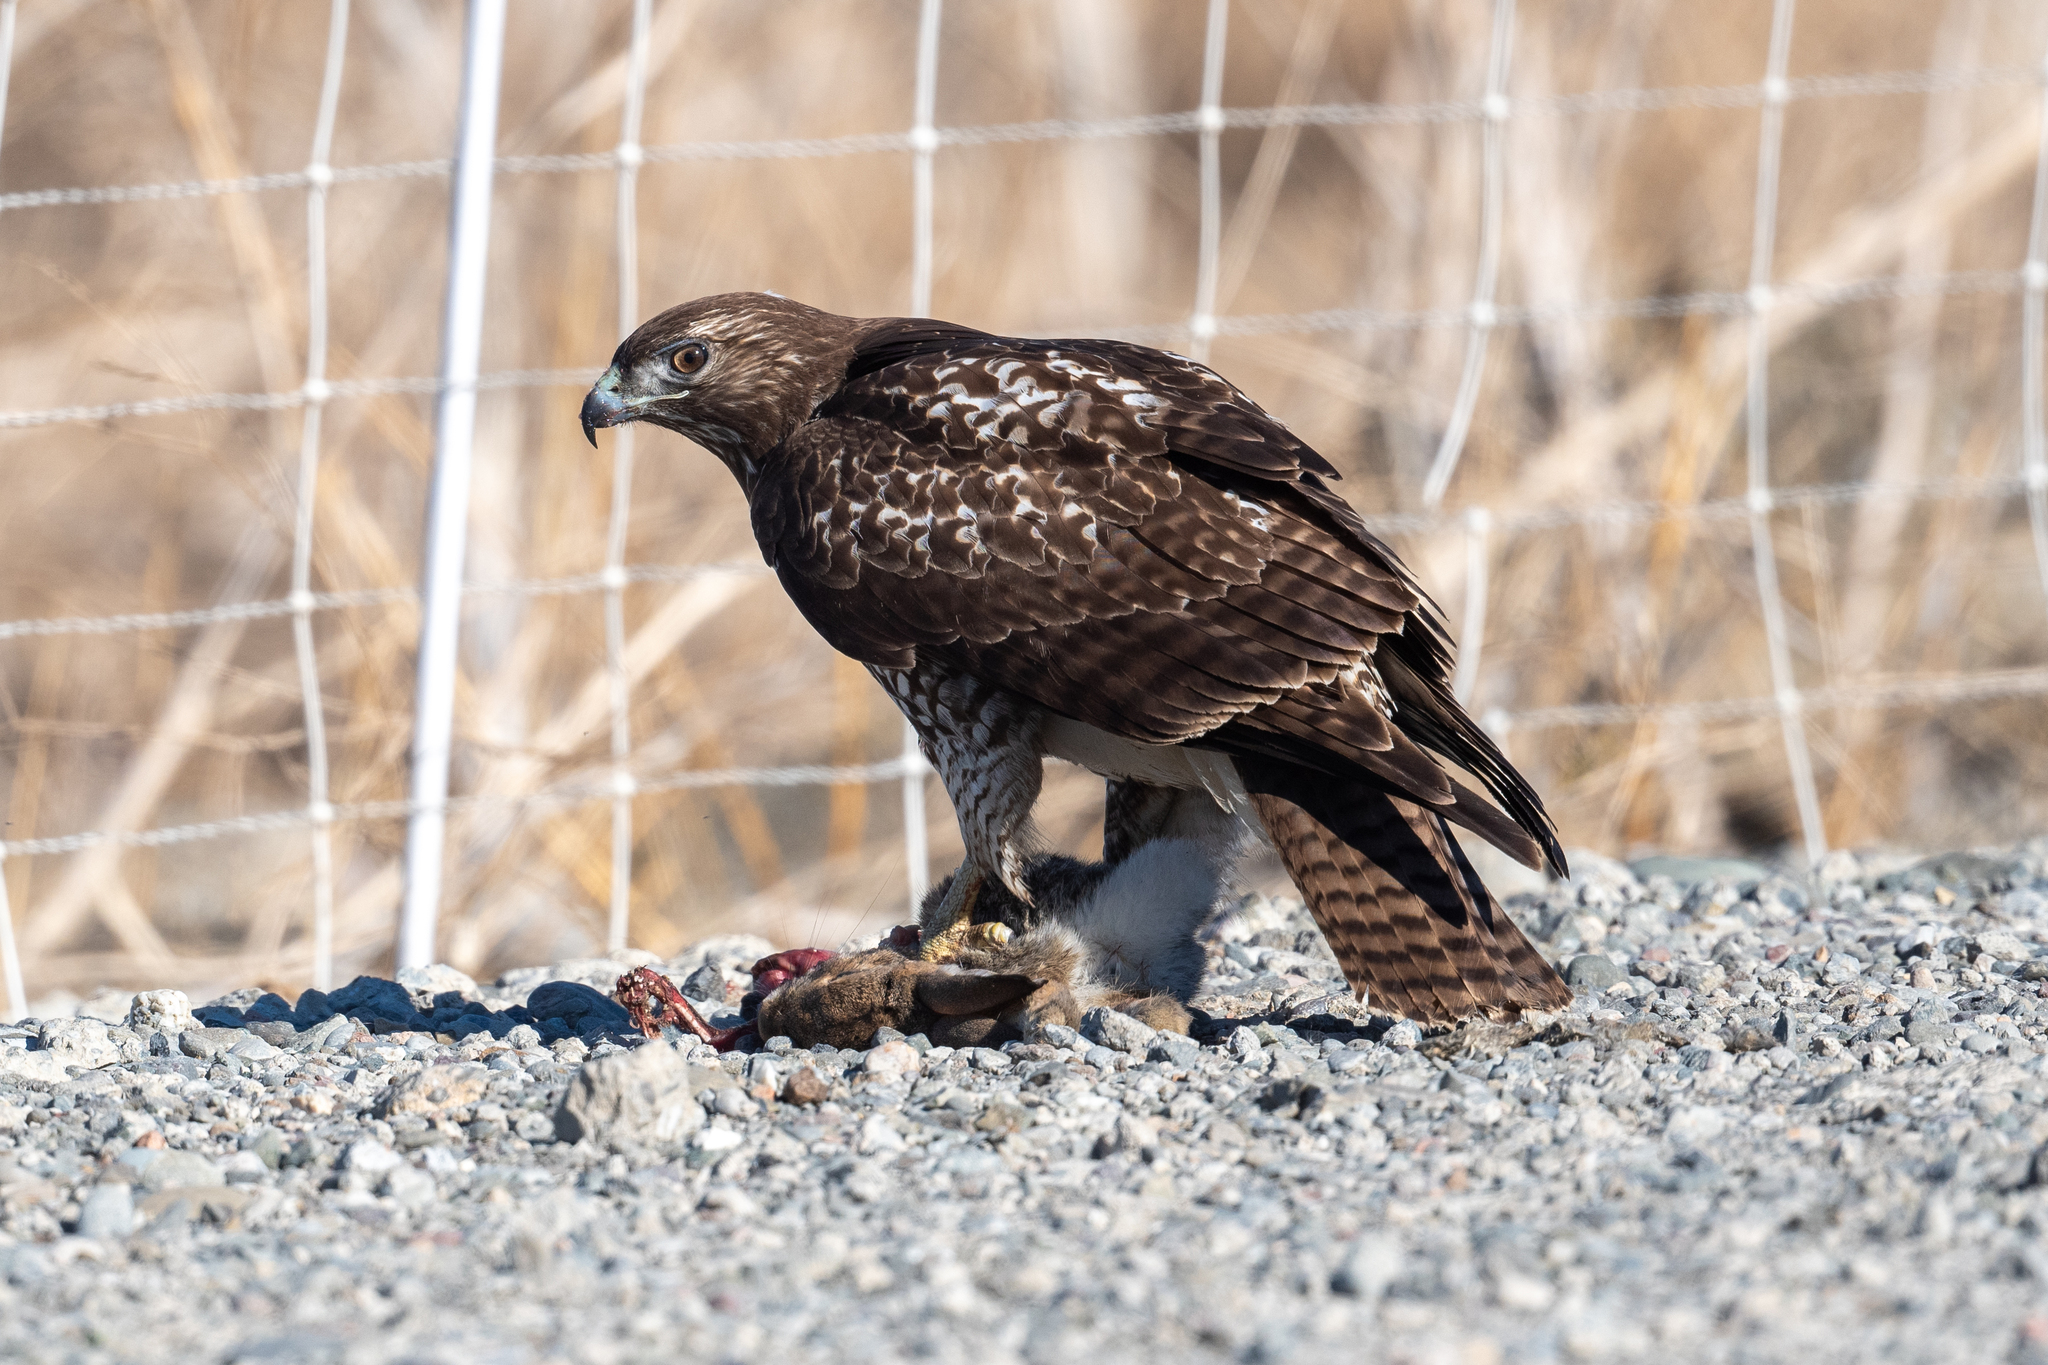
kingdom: Animalia
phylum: Chordata
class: Aves
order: Accipitriformes
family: Accipitridae
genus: Buteo
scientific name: Buteo jamaicensis
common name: Red-tailed hawk
